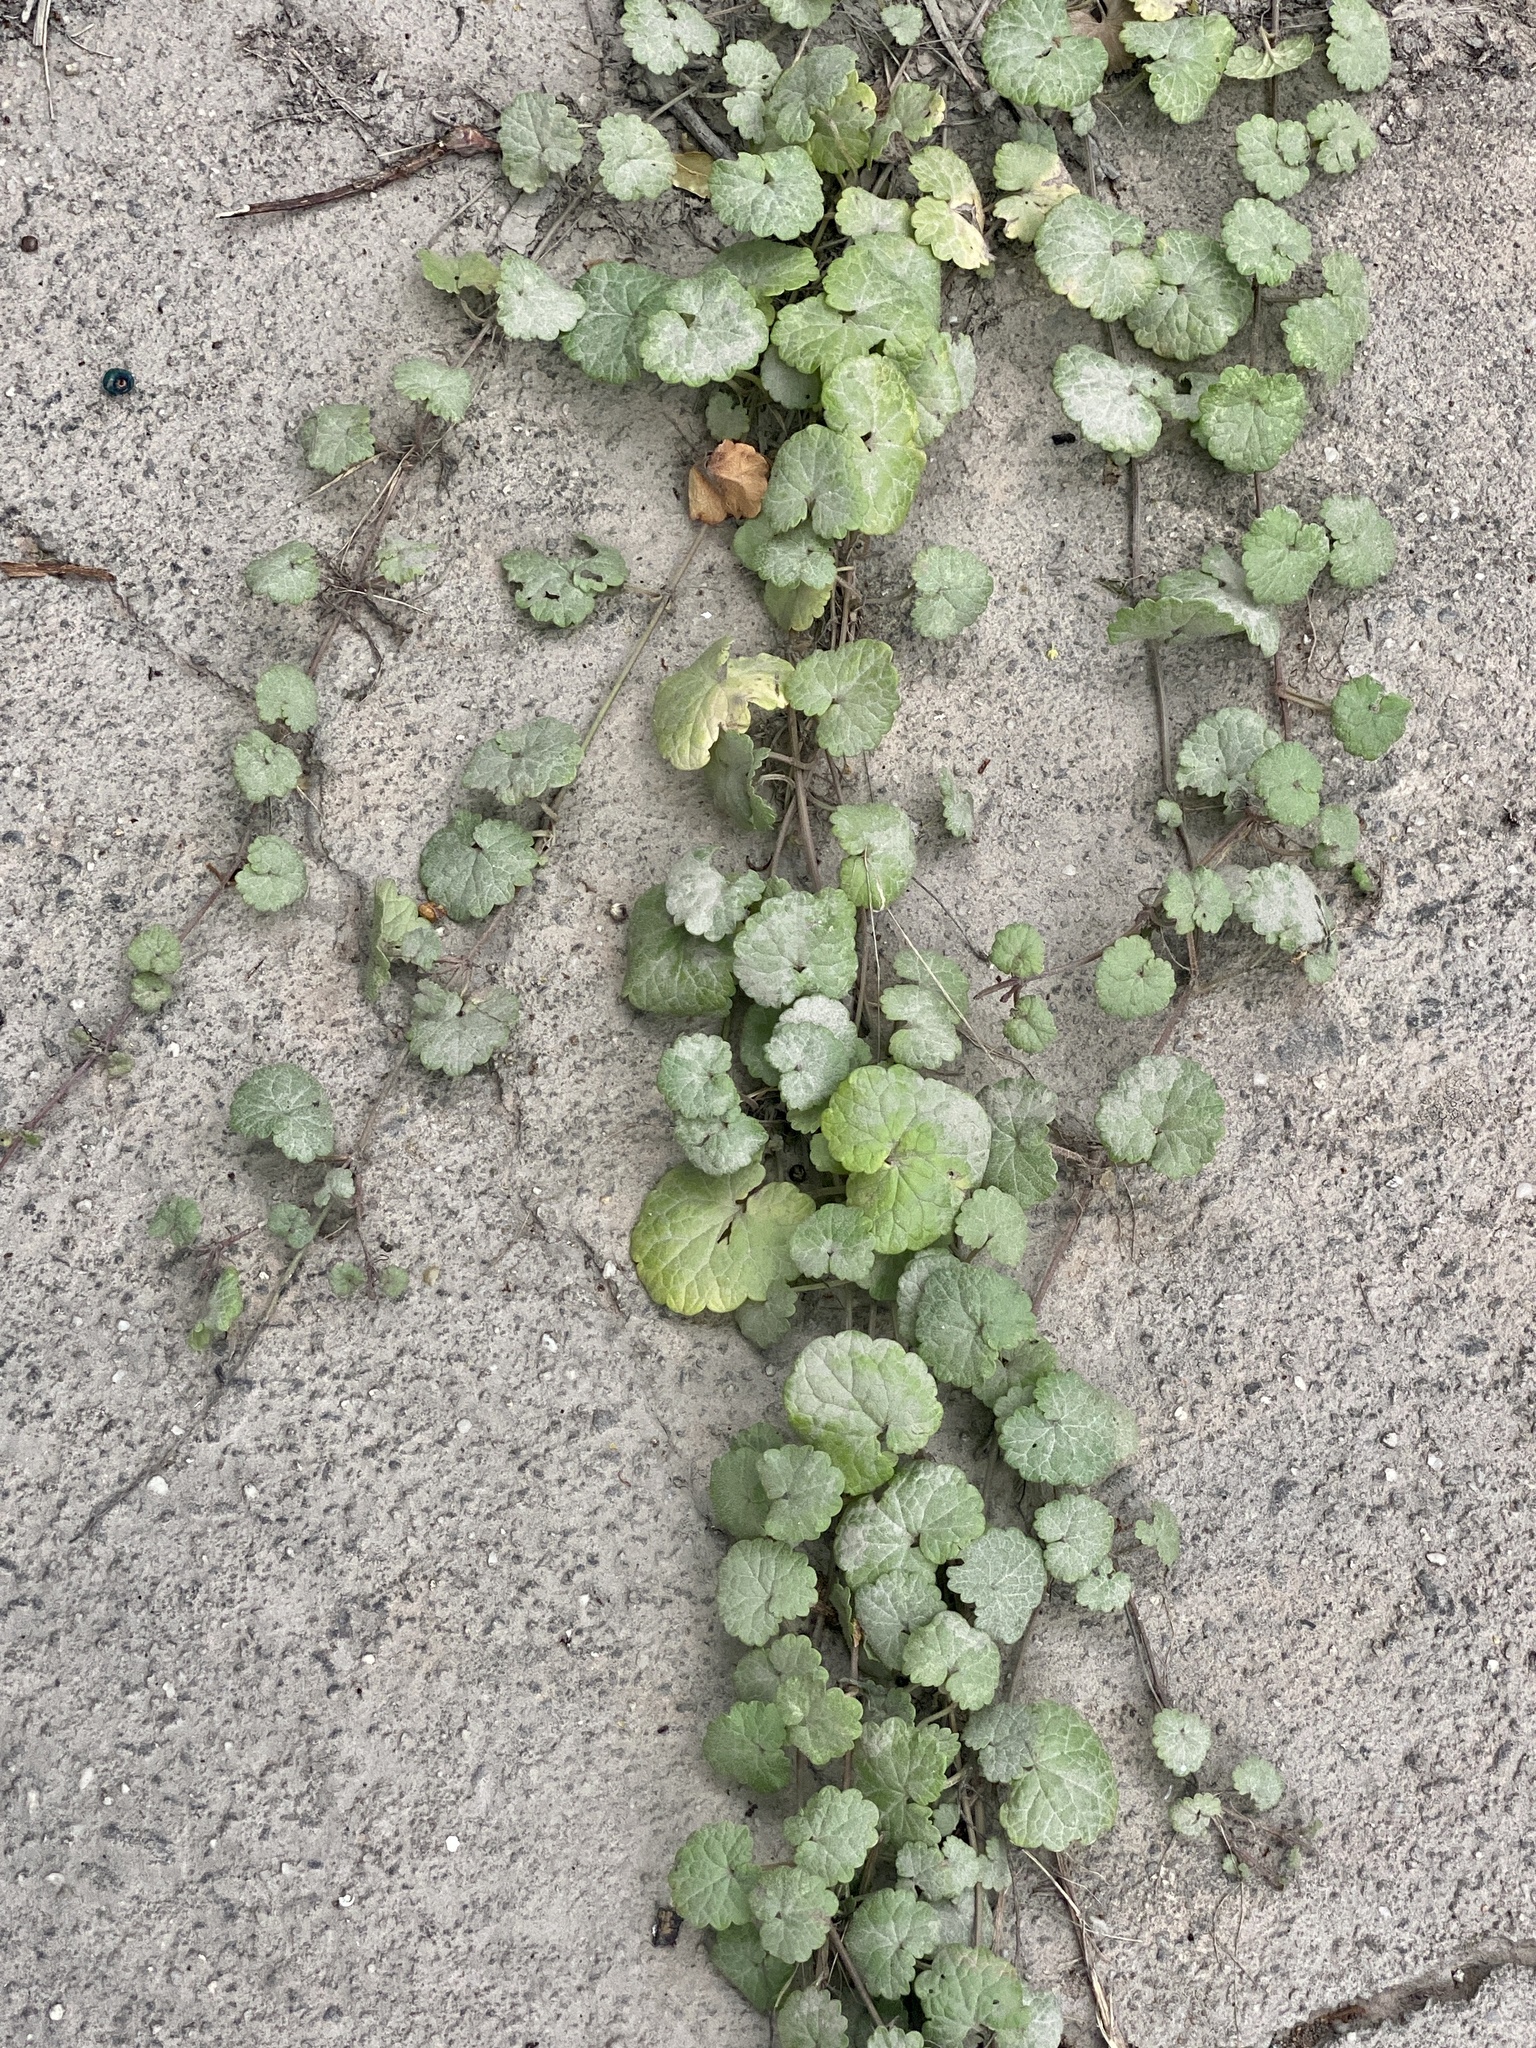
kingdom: Plantae
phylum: Tracheophyta
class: Magnoliopsida
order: Lamiales
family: Lamiaceae
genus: Glechoma
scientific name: Glechoma hederacea
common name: Ground ivy
